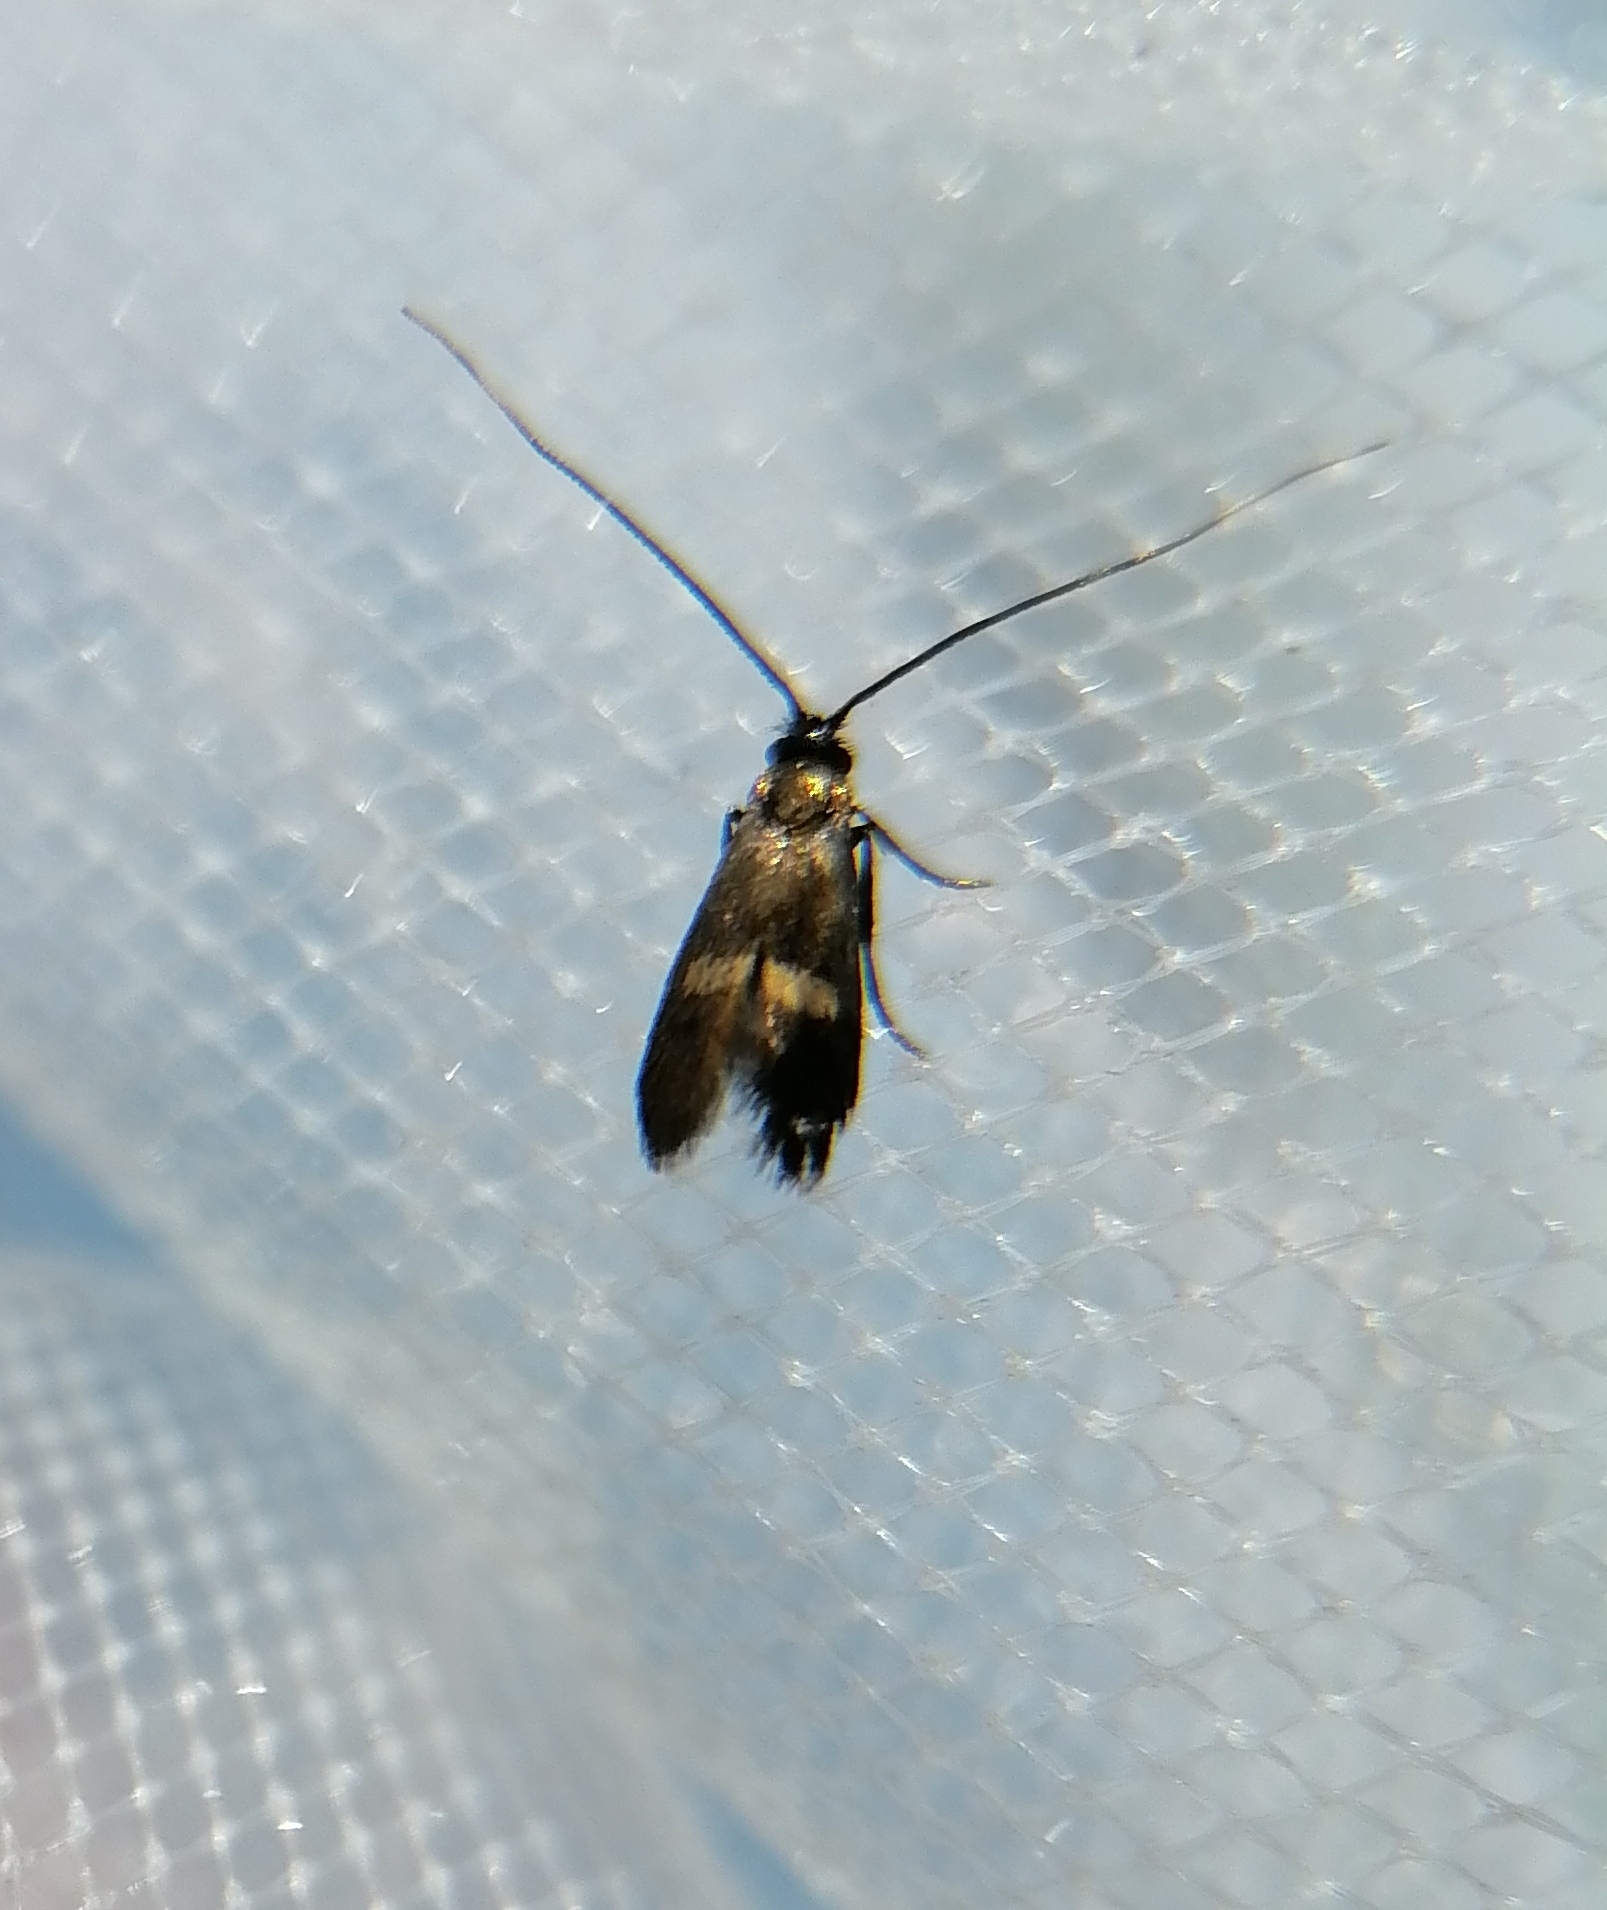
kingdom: Animalia
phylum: Arthropoda
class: Insecta
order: Lepidoptera
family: Adelidae
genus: Cauchas
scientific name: Cauchas fibulella
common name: Little long-horn
